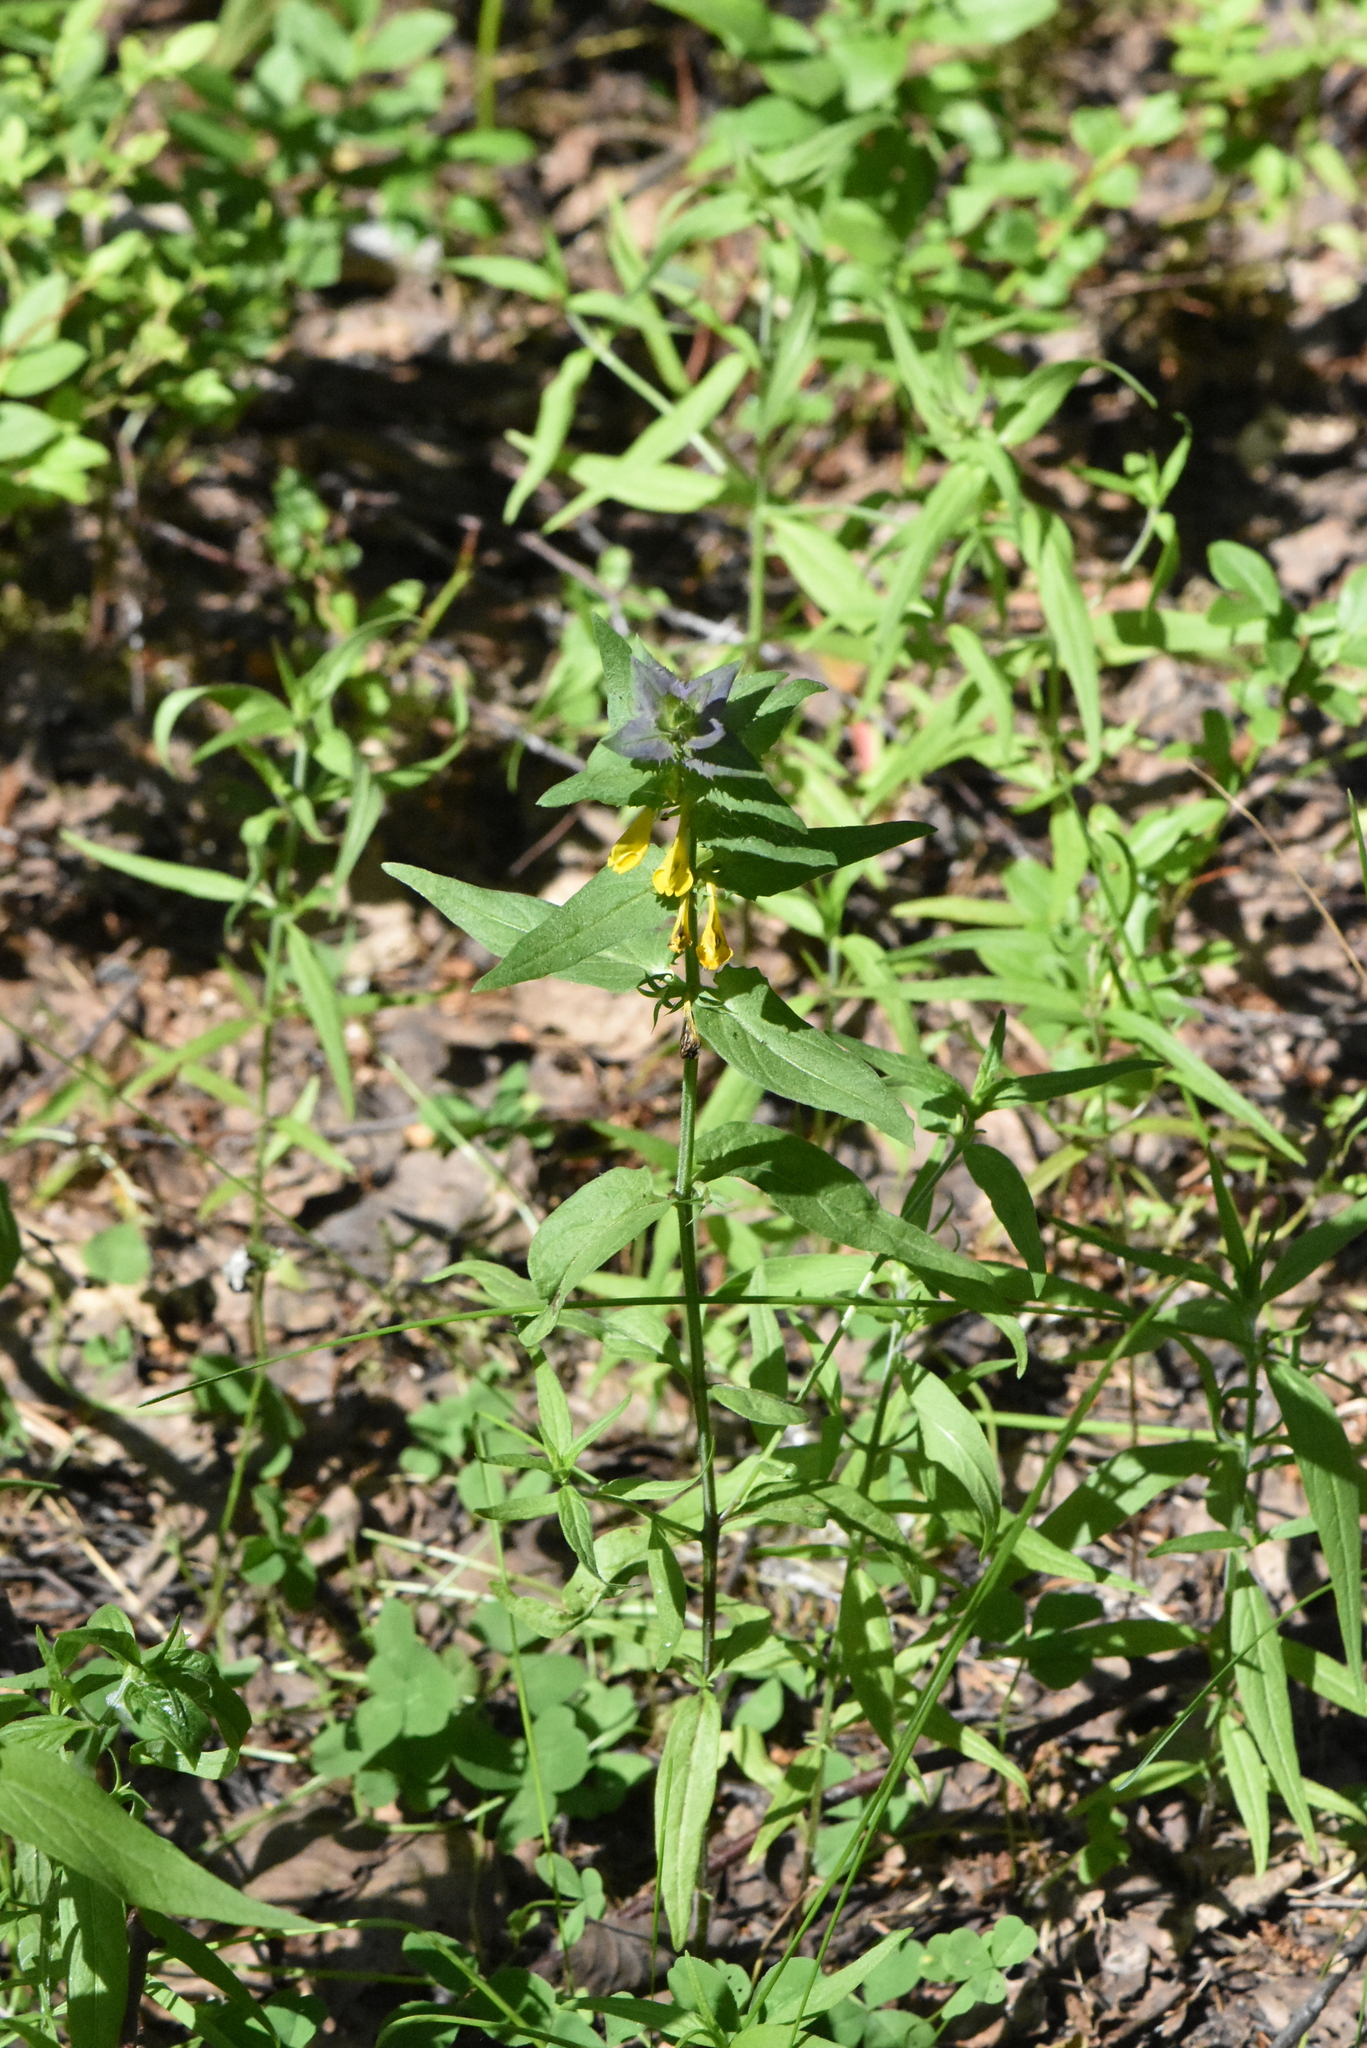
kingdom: Plantae
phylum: Tracheophyta
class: Magnoliopsida
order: Lamiales
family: Orobanchaceae
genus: Melampyrum
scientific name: Melampyrum nemorosum
